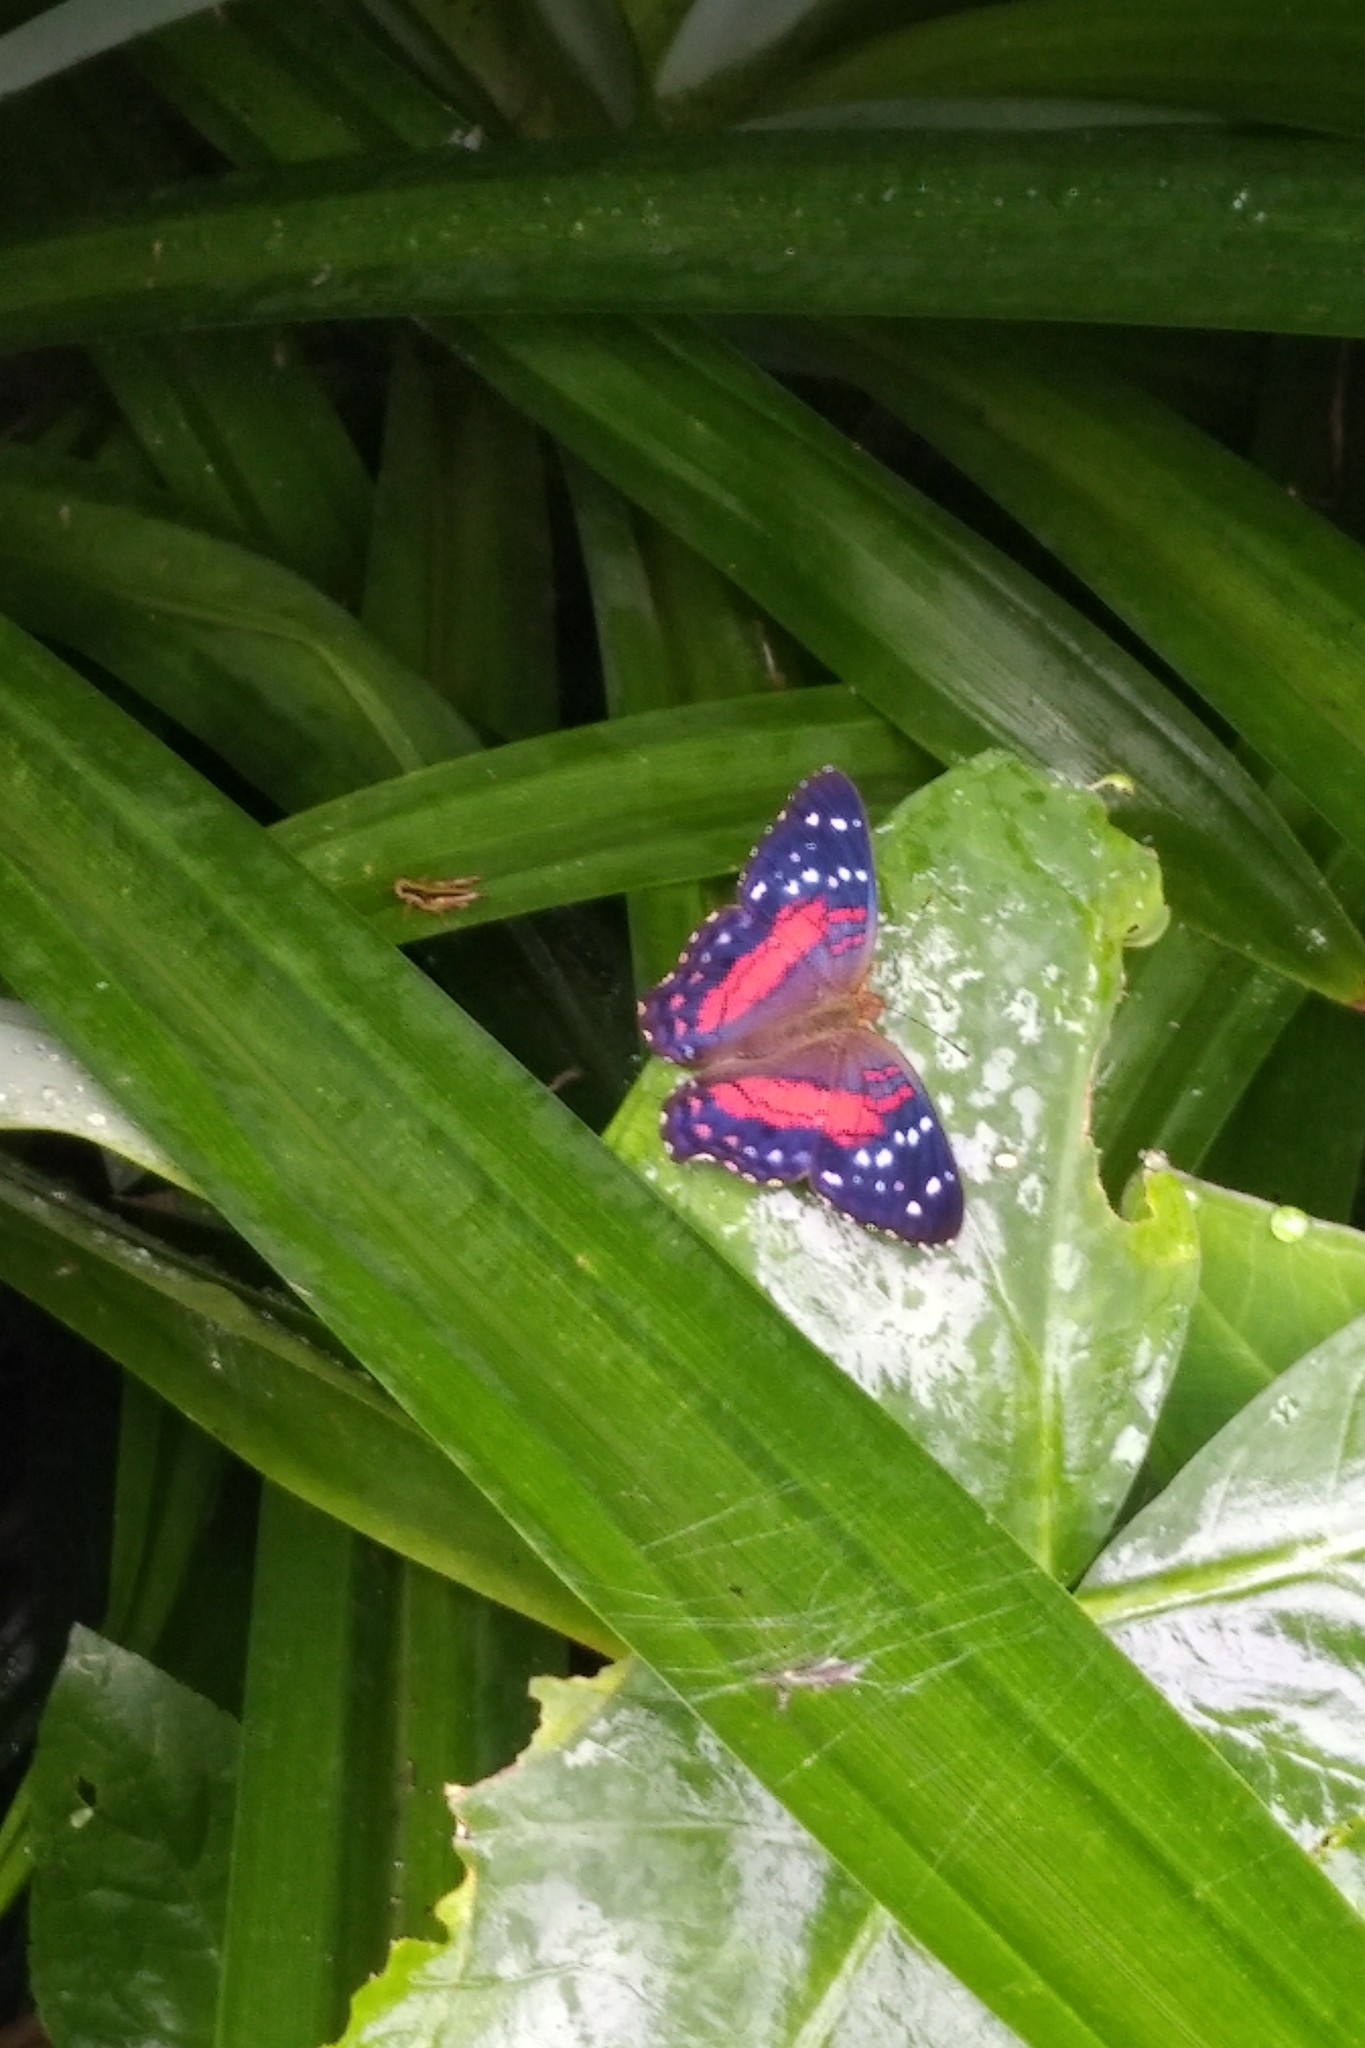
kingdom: Animalia
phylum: Arthropoda
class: Insecta
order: Lepidoptera
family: Nymphalidae
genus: Anartia
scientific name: Anartia amathea
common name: Red peacock
